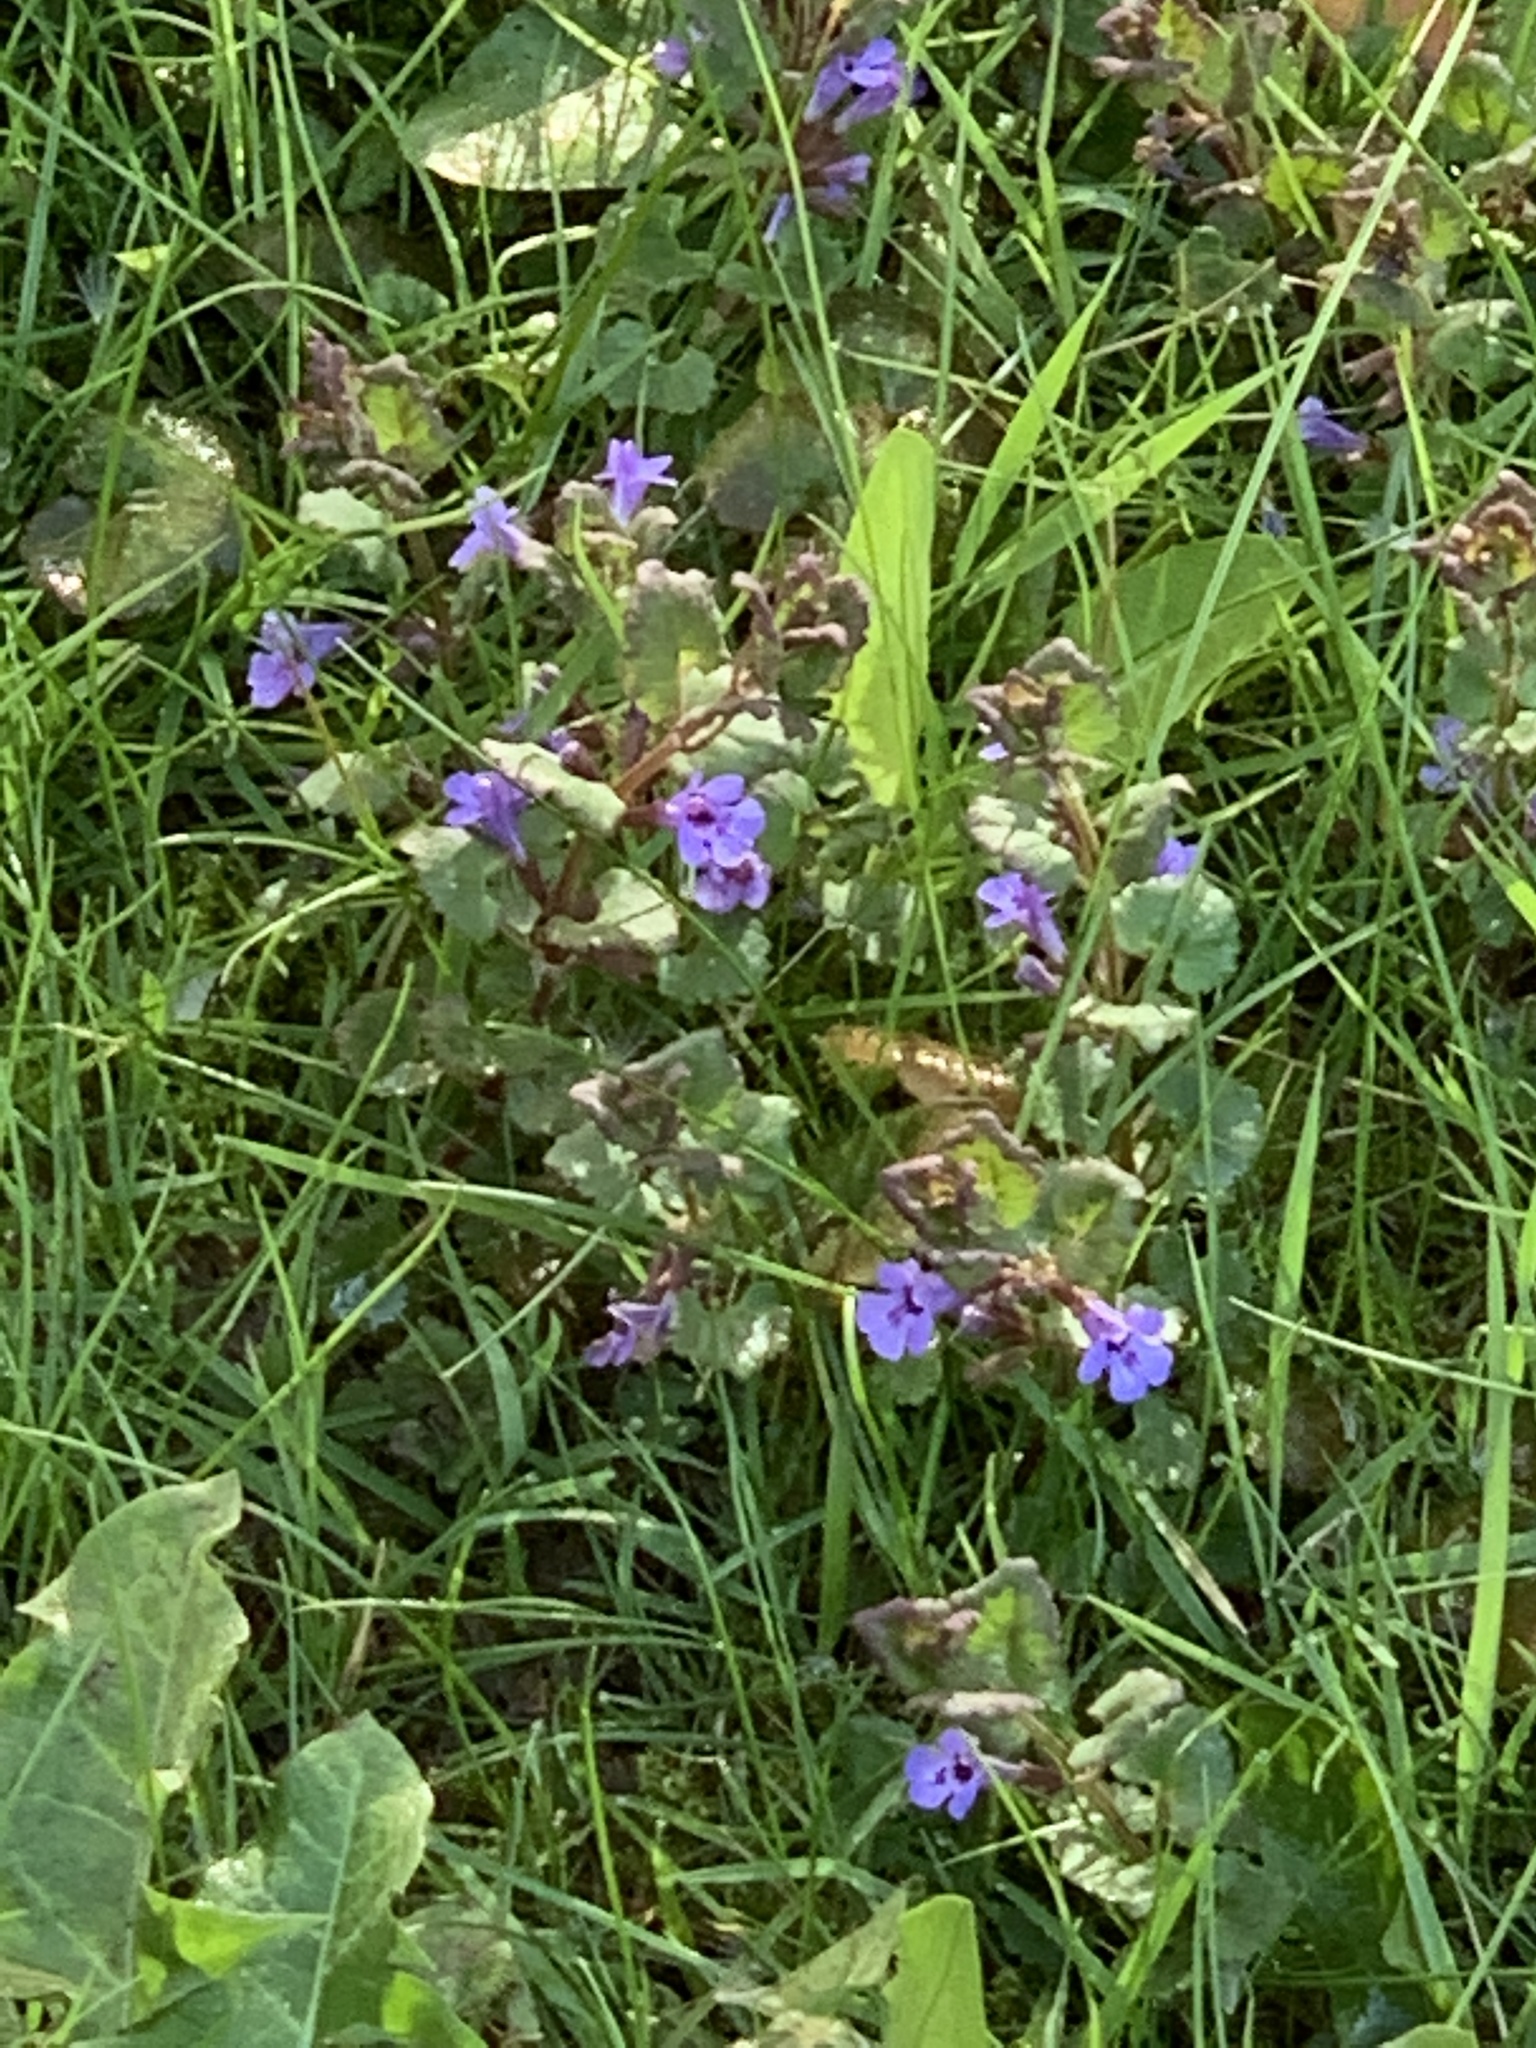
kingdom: Plantae
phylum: Tracheophyta
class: Magnoliopsida
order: Lamiales
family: Lamiaceae
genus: Glechoma
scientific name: Glechoma hederacea
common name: Ground ivy
